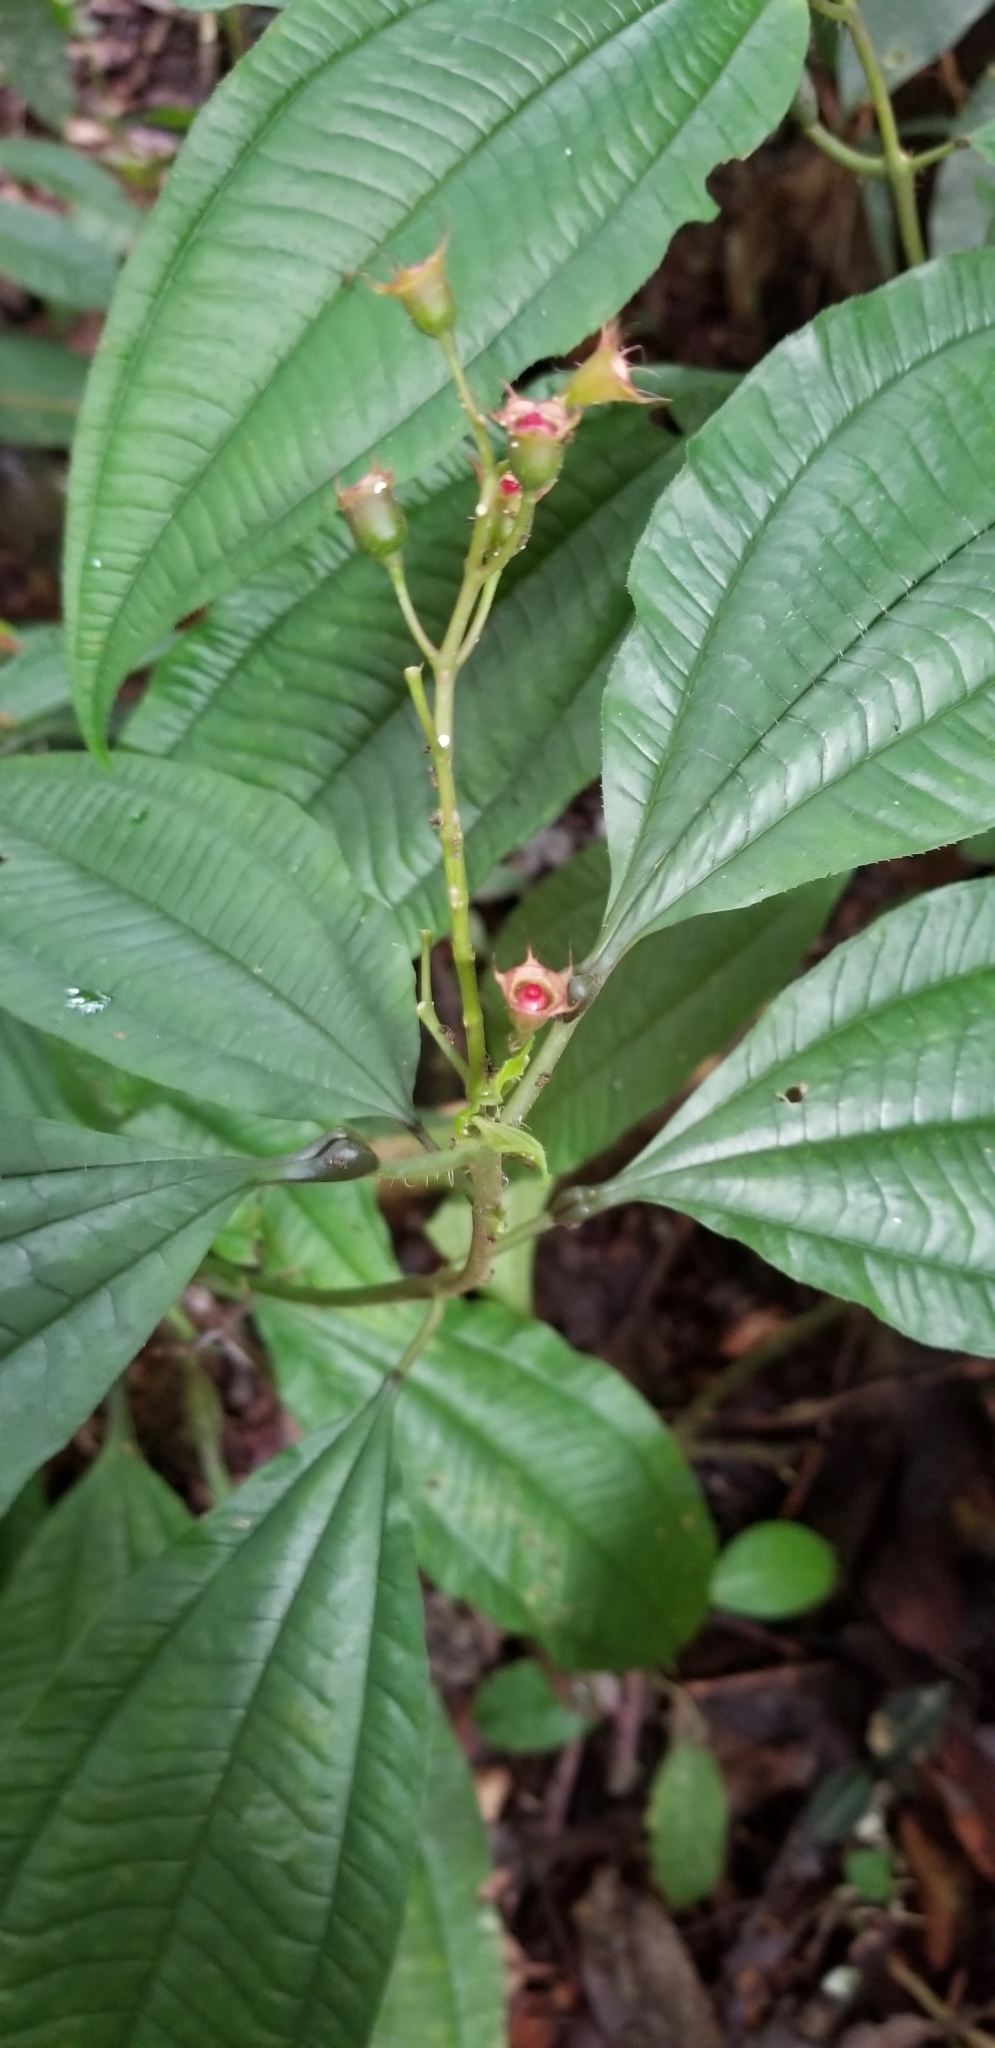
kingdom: Plantae
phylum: Tracheophyta
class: Magnoliopsida
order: Myrtales
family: Melastomataceae
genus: Miconia
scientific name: Miconia bullifera
